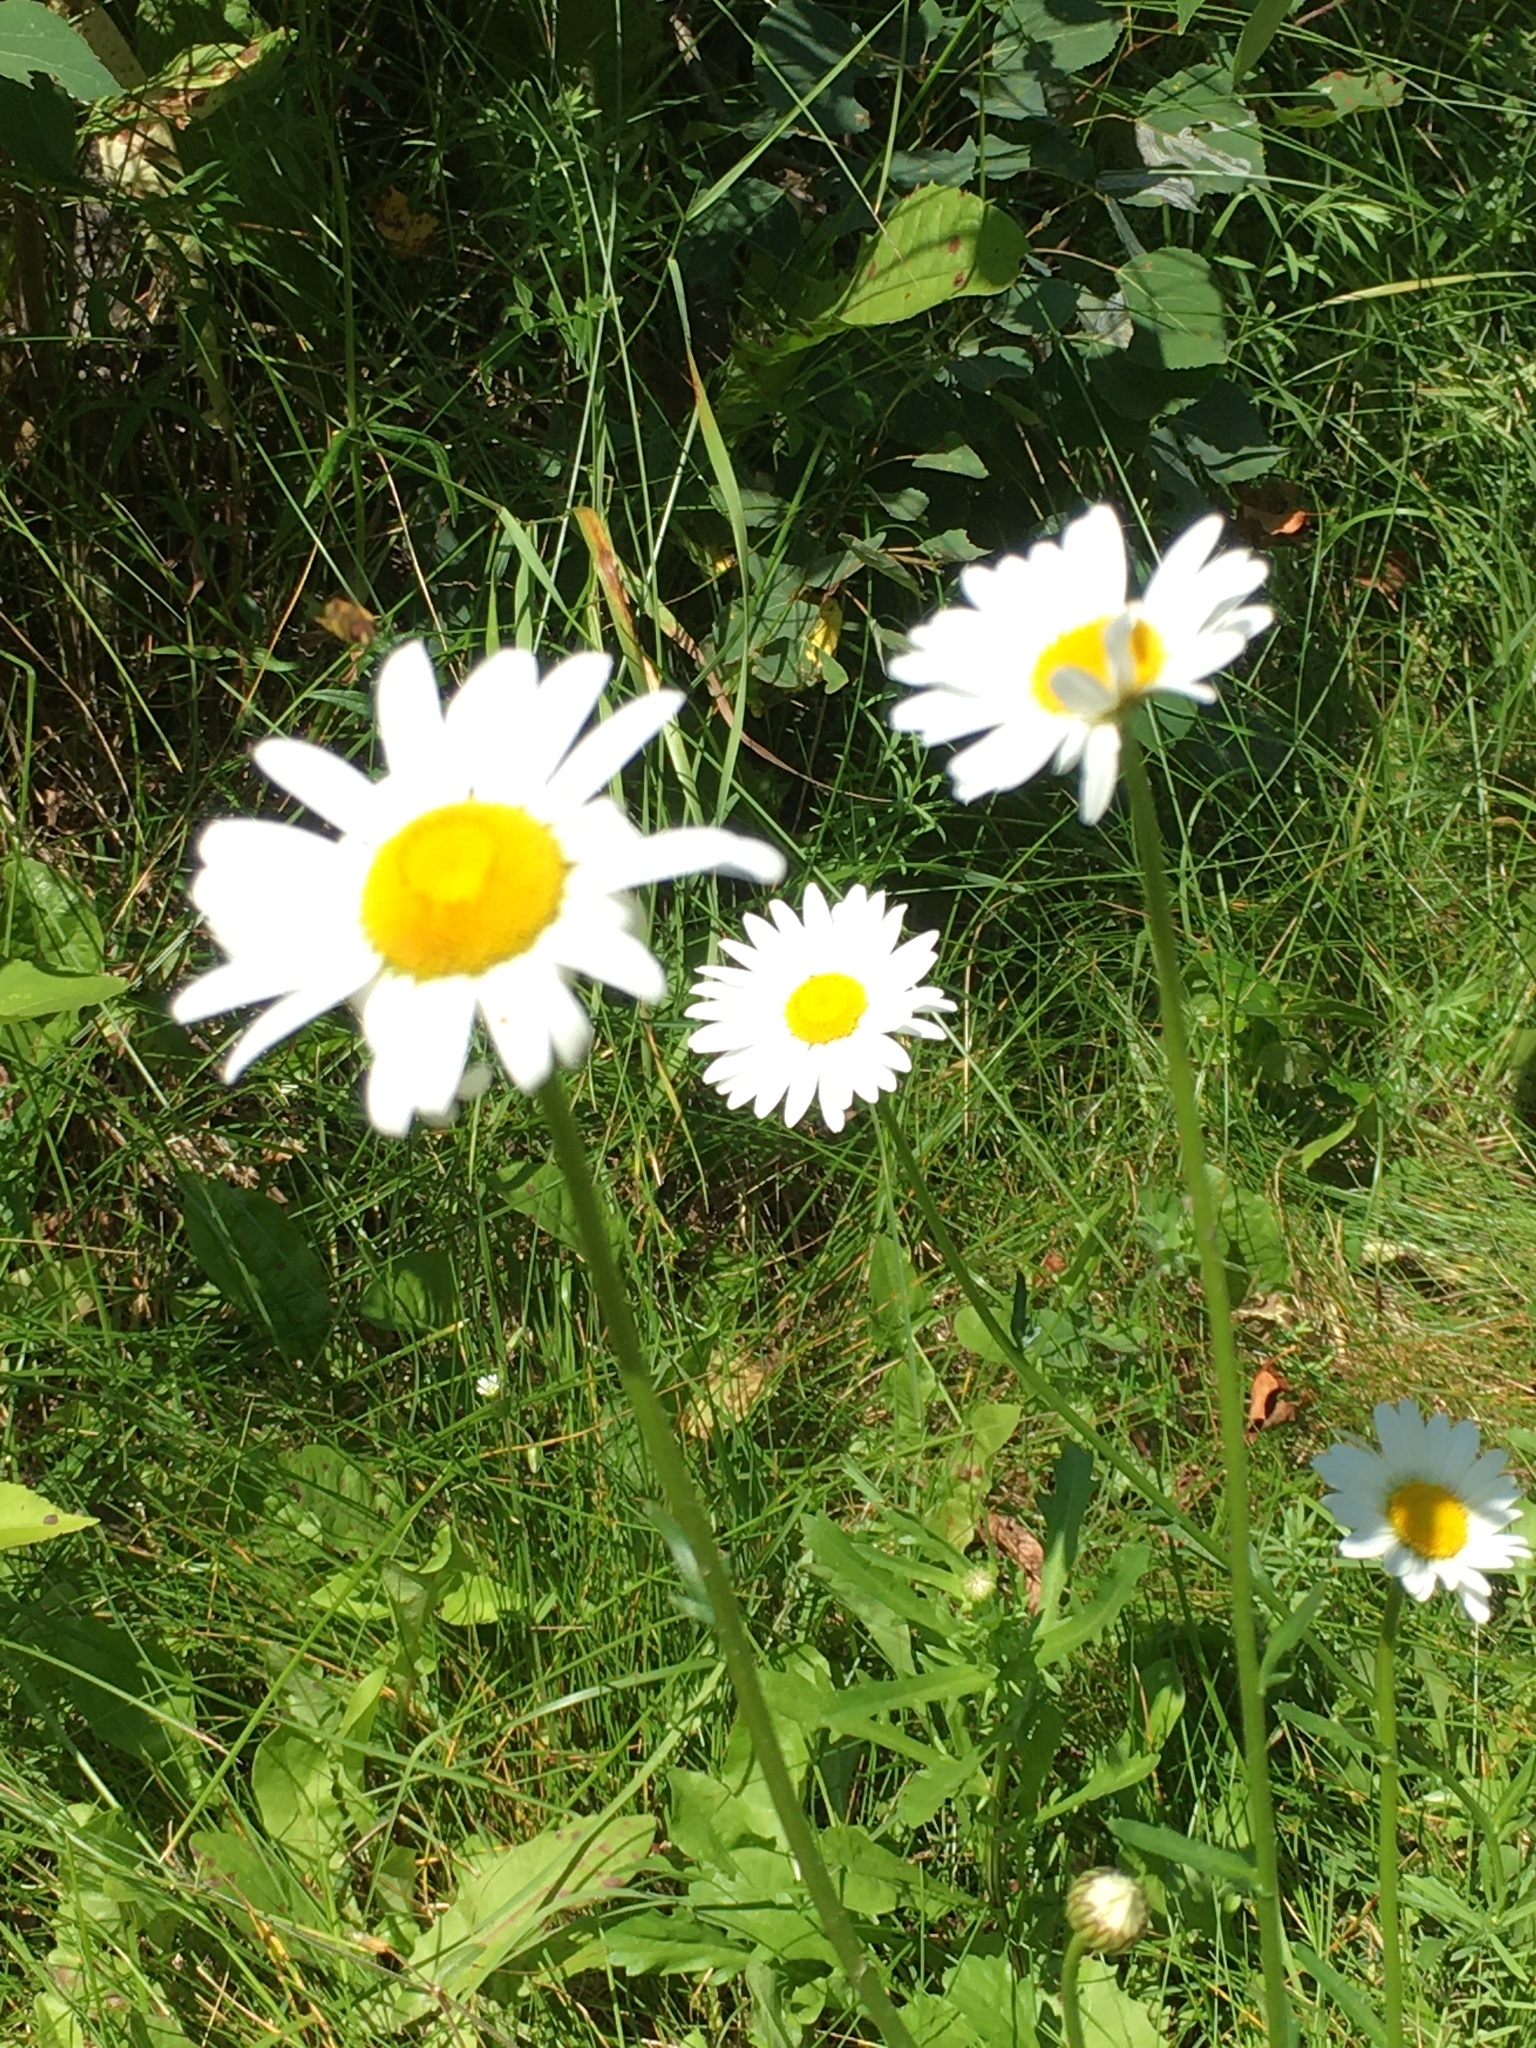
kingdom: Plantae
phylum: Tracheophyta
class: Magnoliopsida
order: Asterales
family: Asteraceae
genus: Leucanthemum
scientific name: Leucanthemum vulgare
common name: Oxeye daisy
